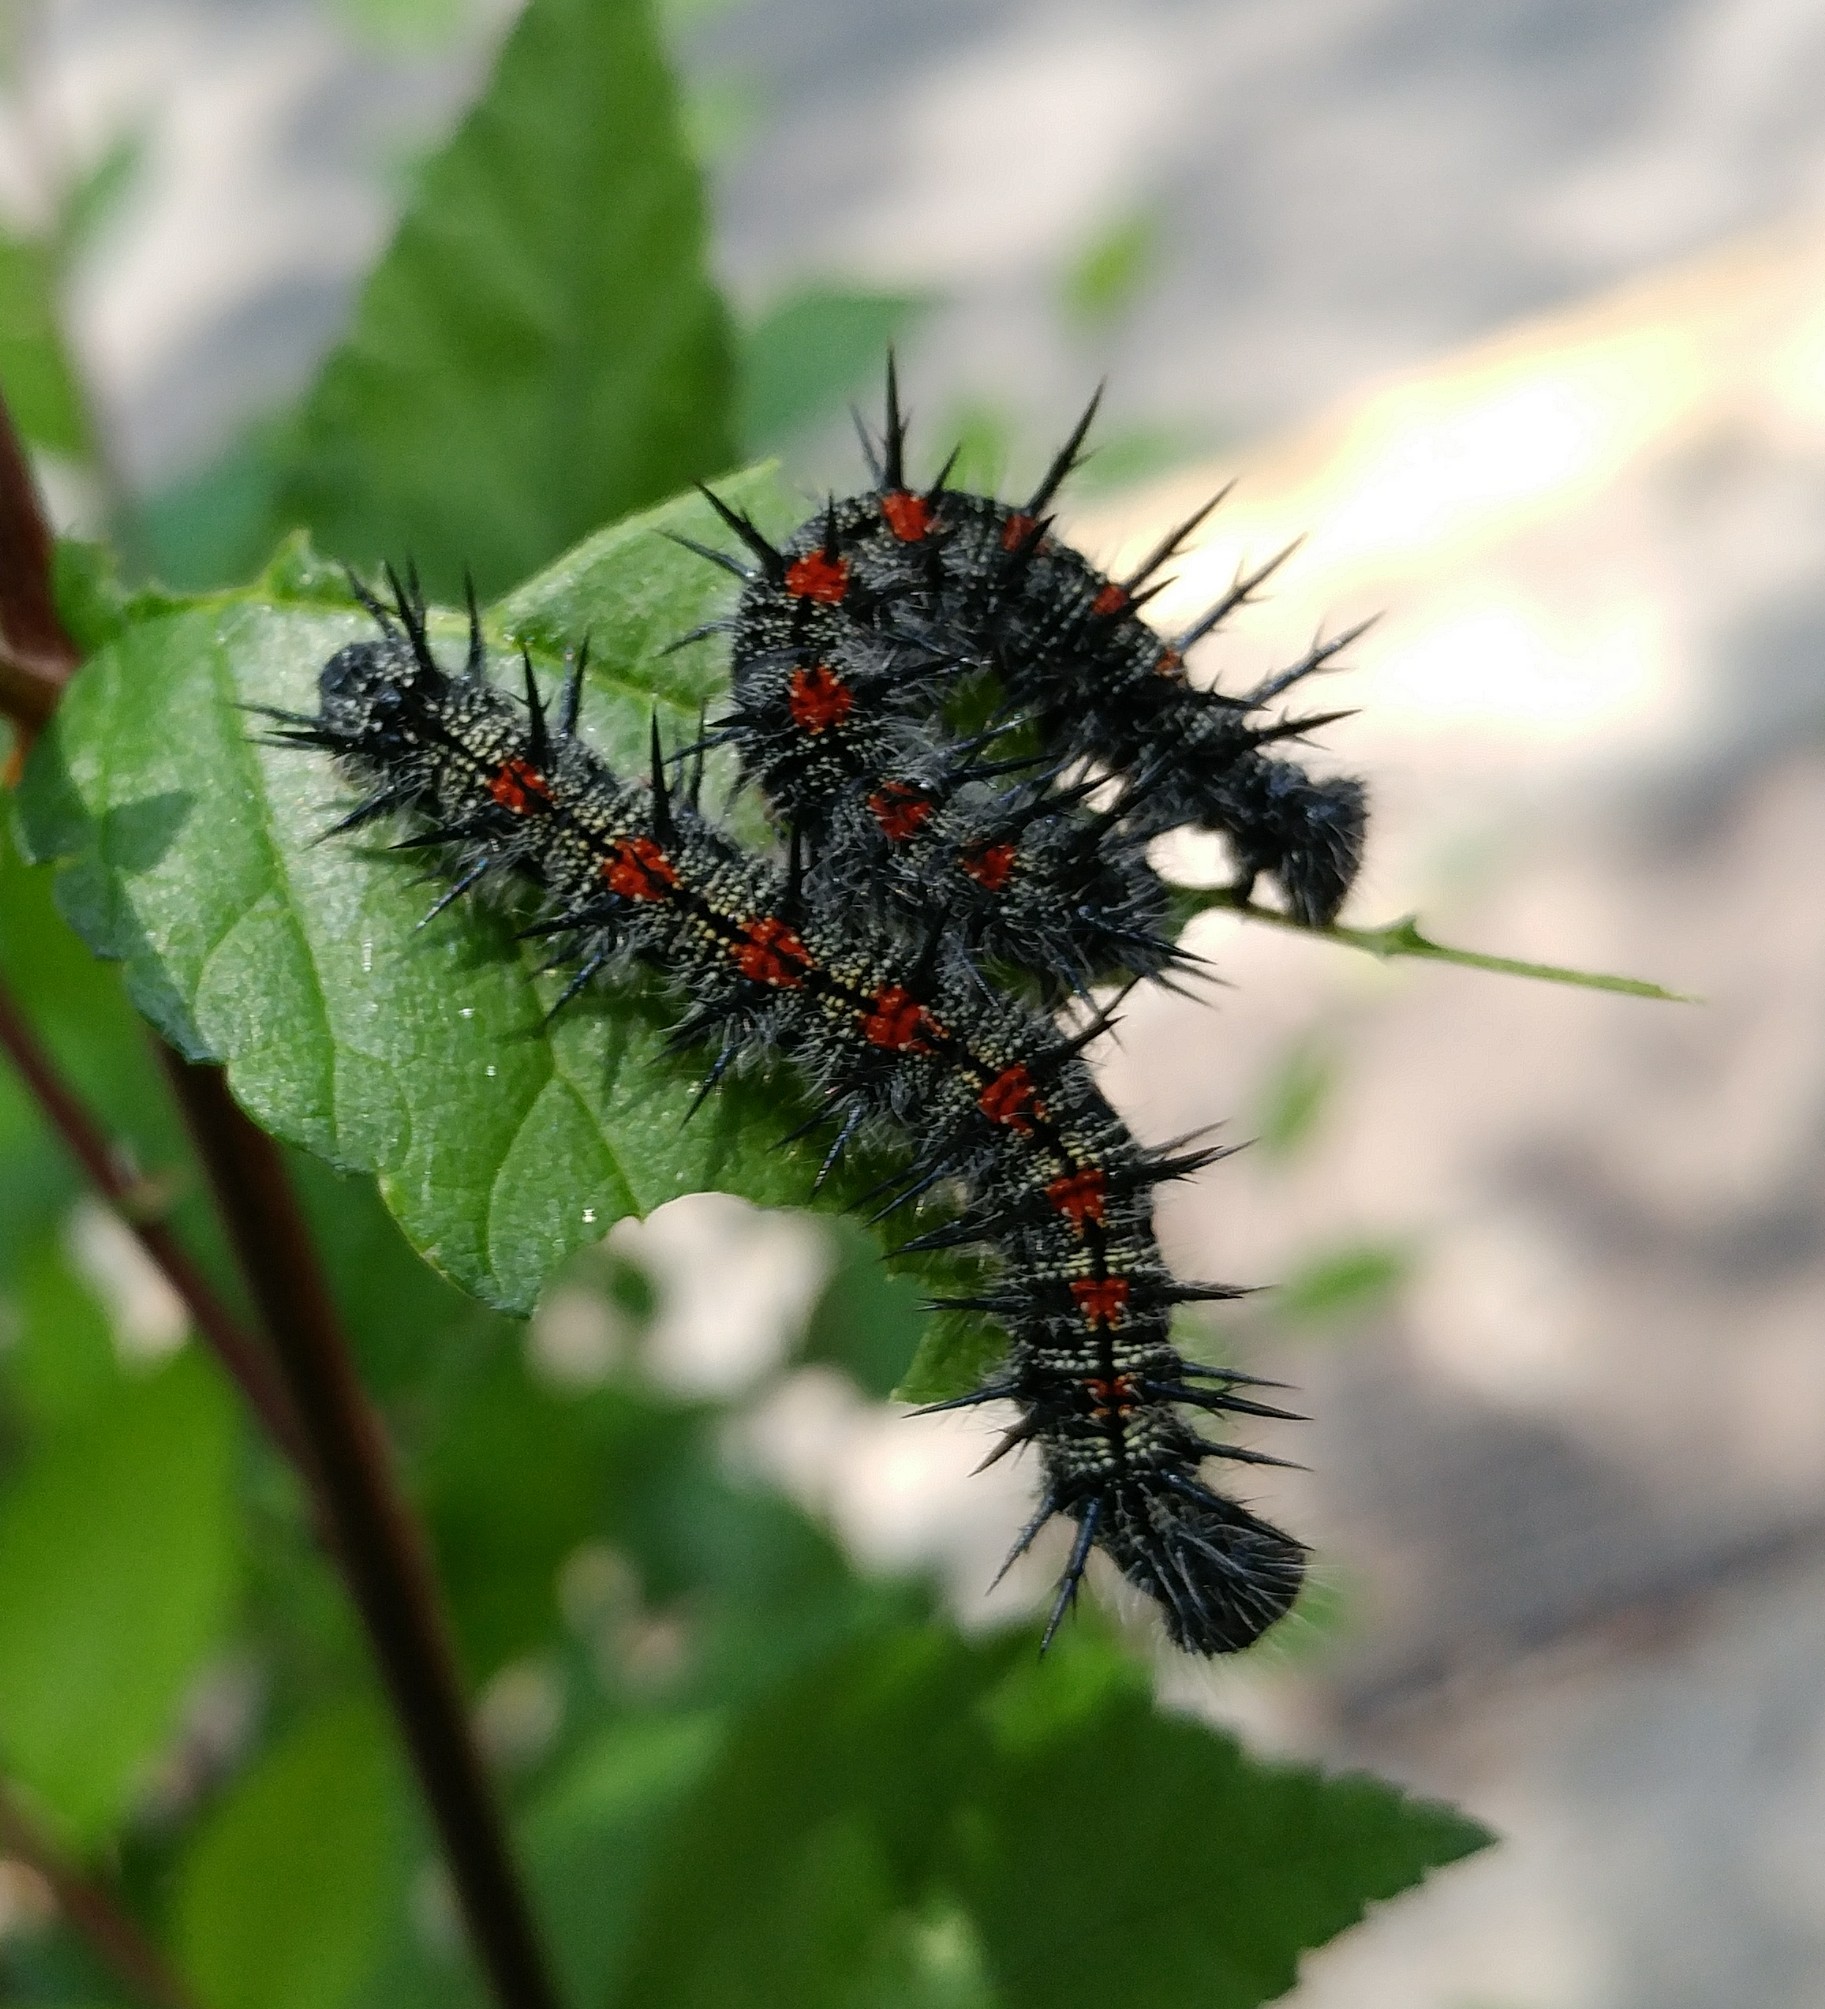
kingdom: Animalia
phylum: Arthropoda
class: Insecta
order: Lepidoptera
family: Nymphalidae
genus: Nymphalis
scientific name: Nymphalis antiopa
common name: Camberwell beauty
